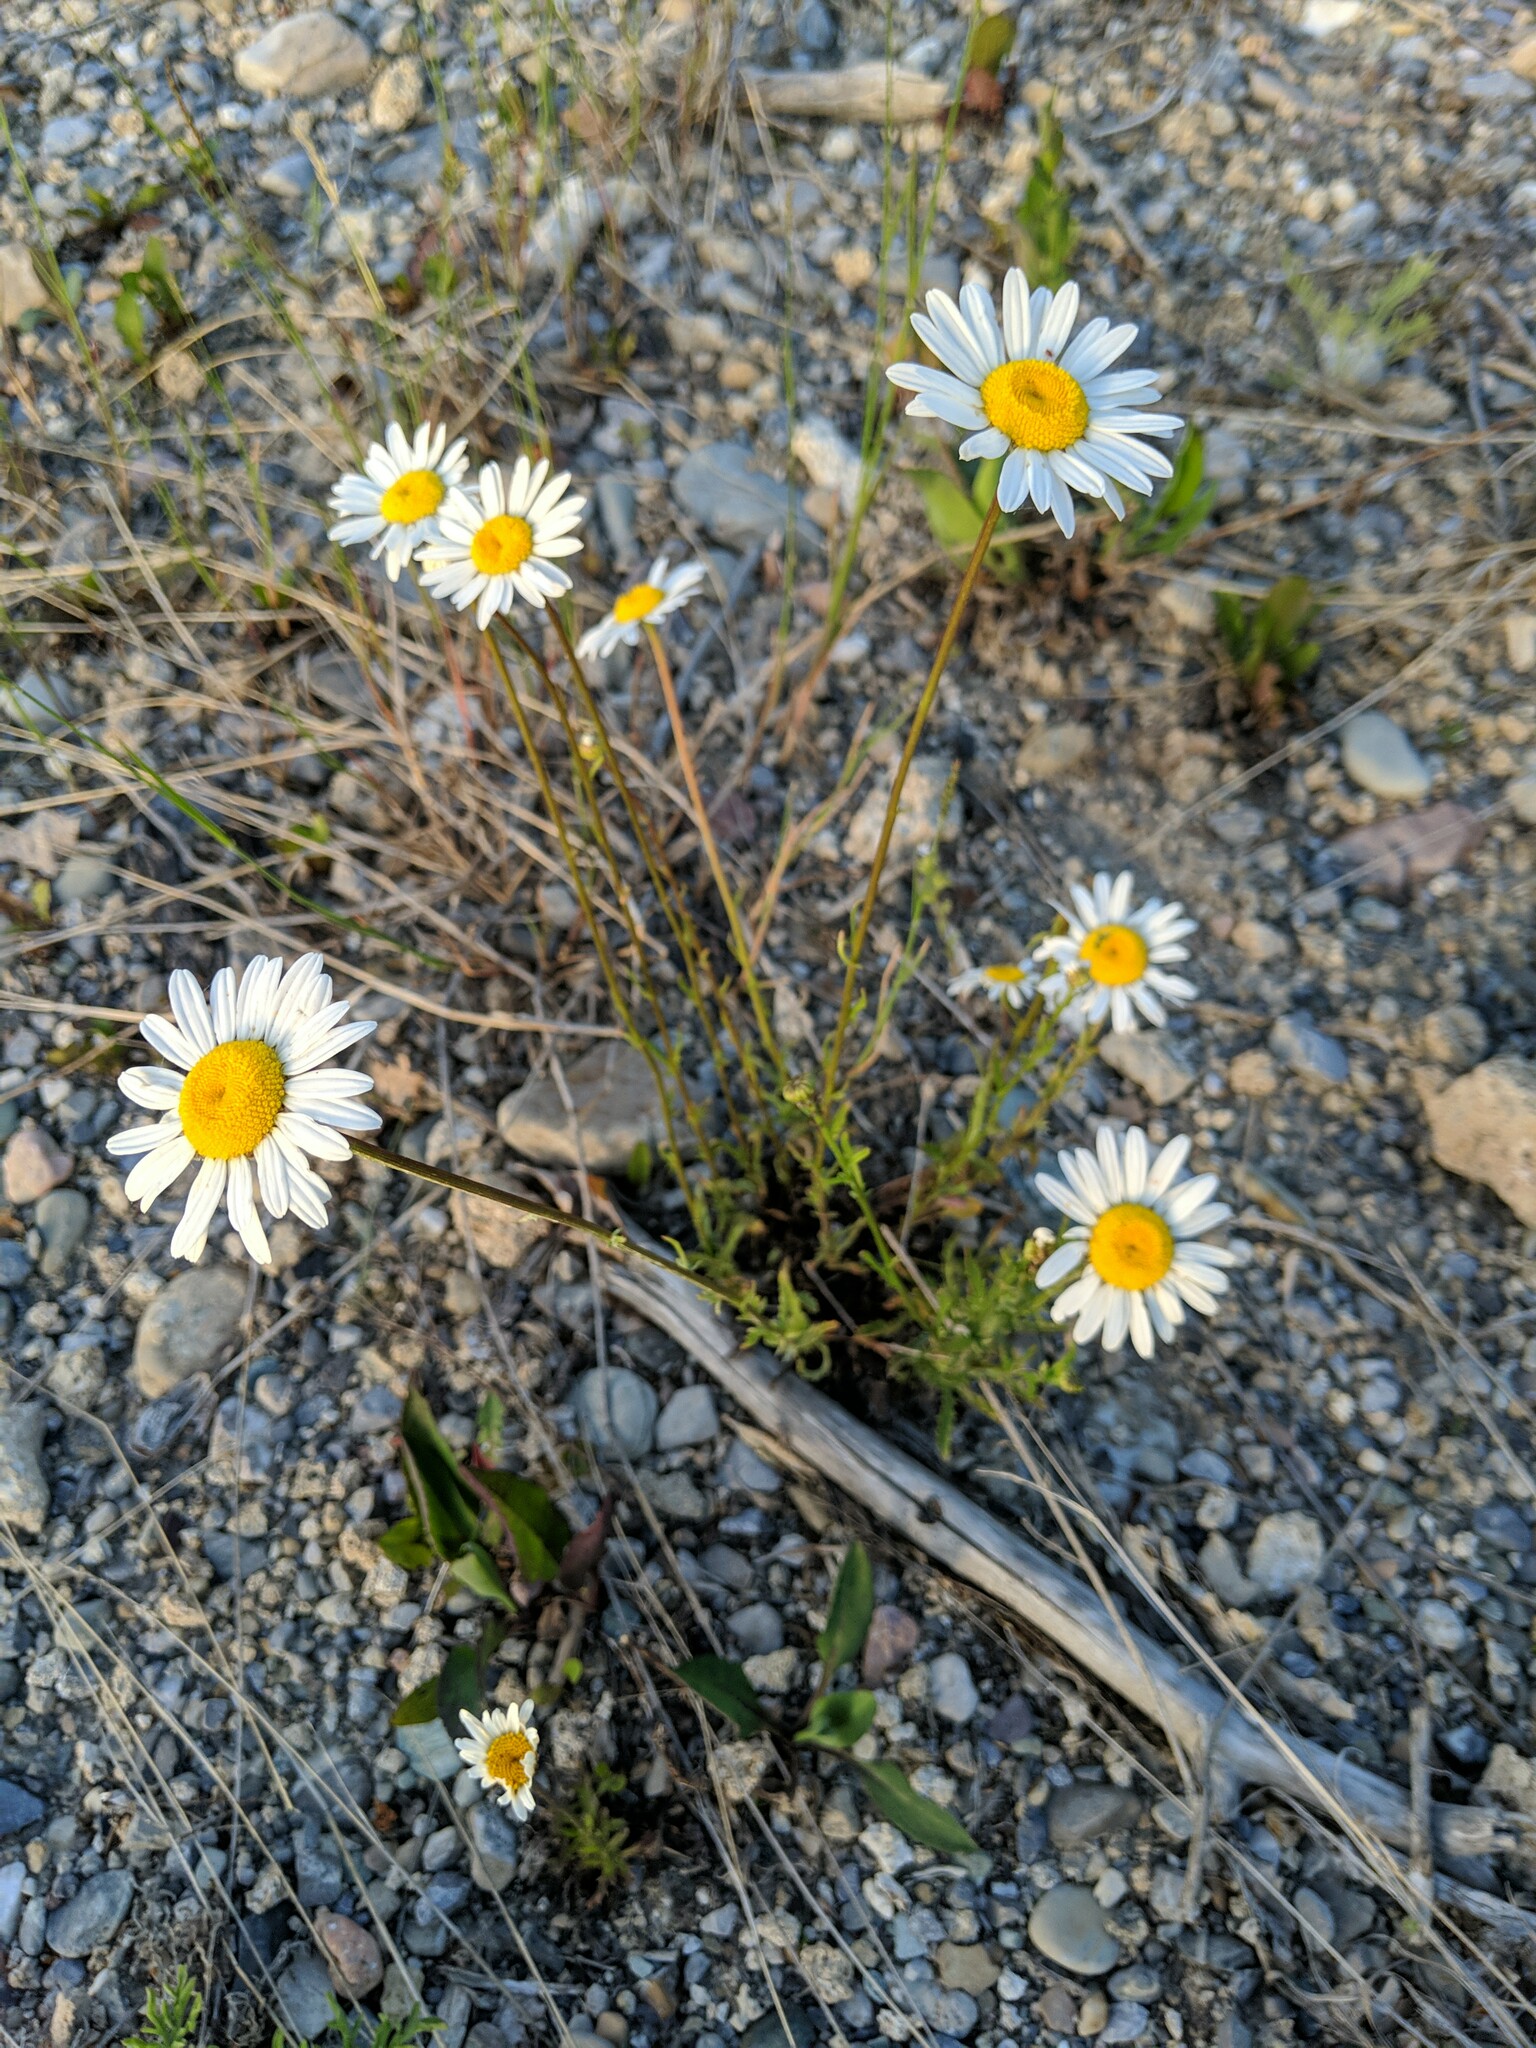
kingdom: Plantae
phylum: Tracheophyta
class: Magnoliopsida
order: Asterales
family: Asteraceae
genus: Leucanthemum
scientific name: Leucanthemum vulgare
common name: Oxeye daisy
